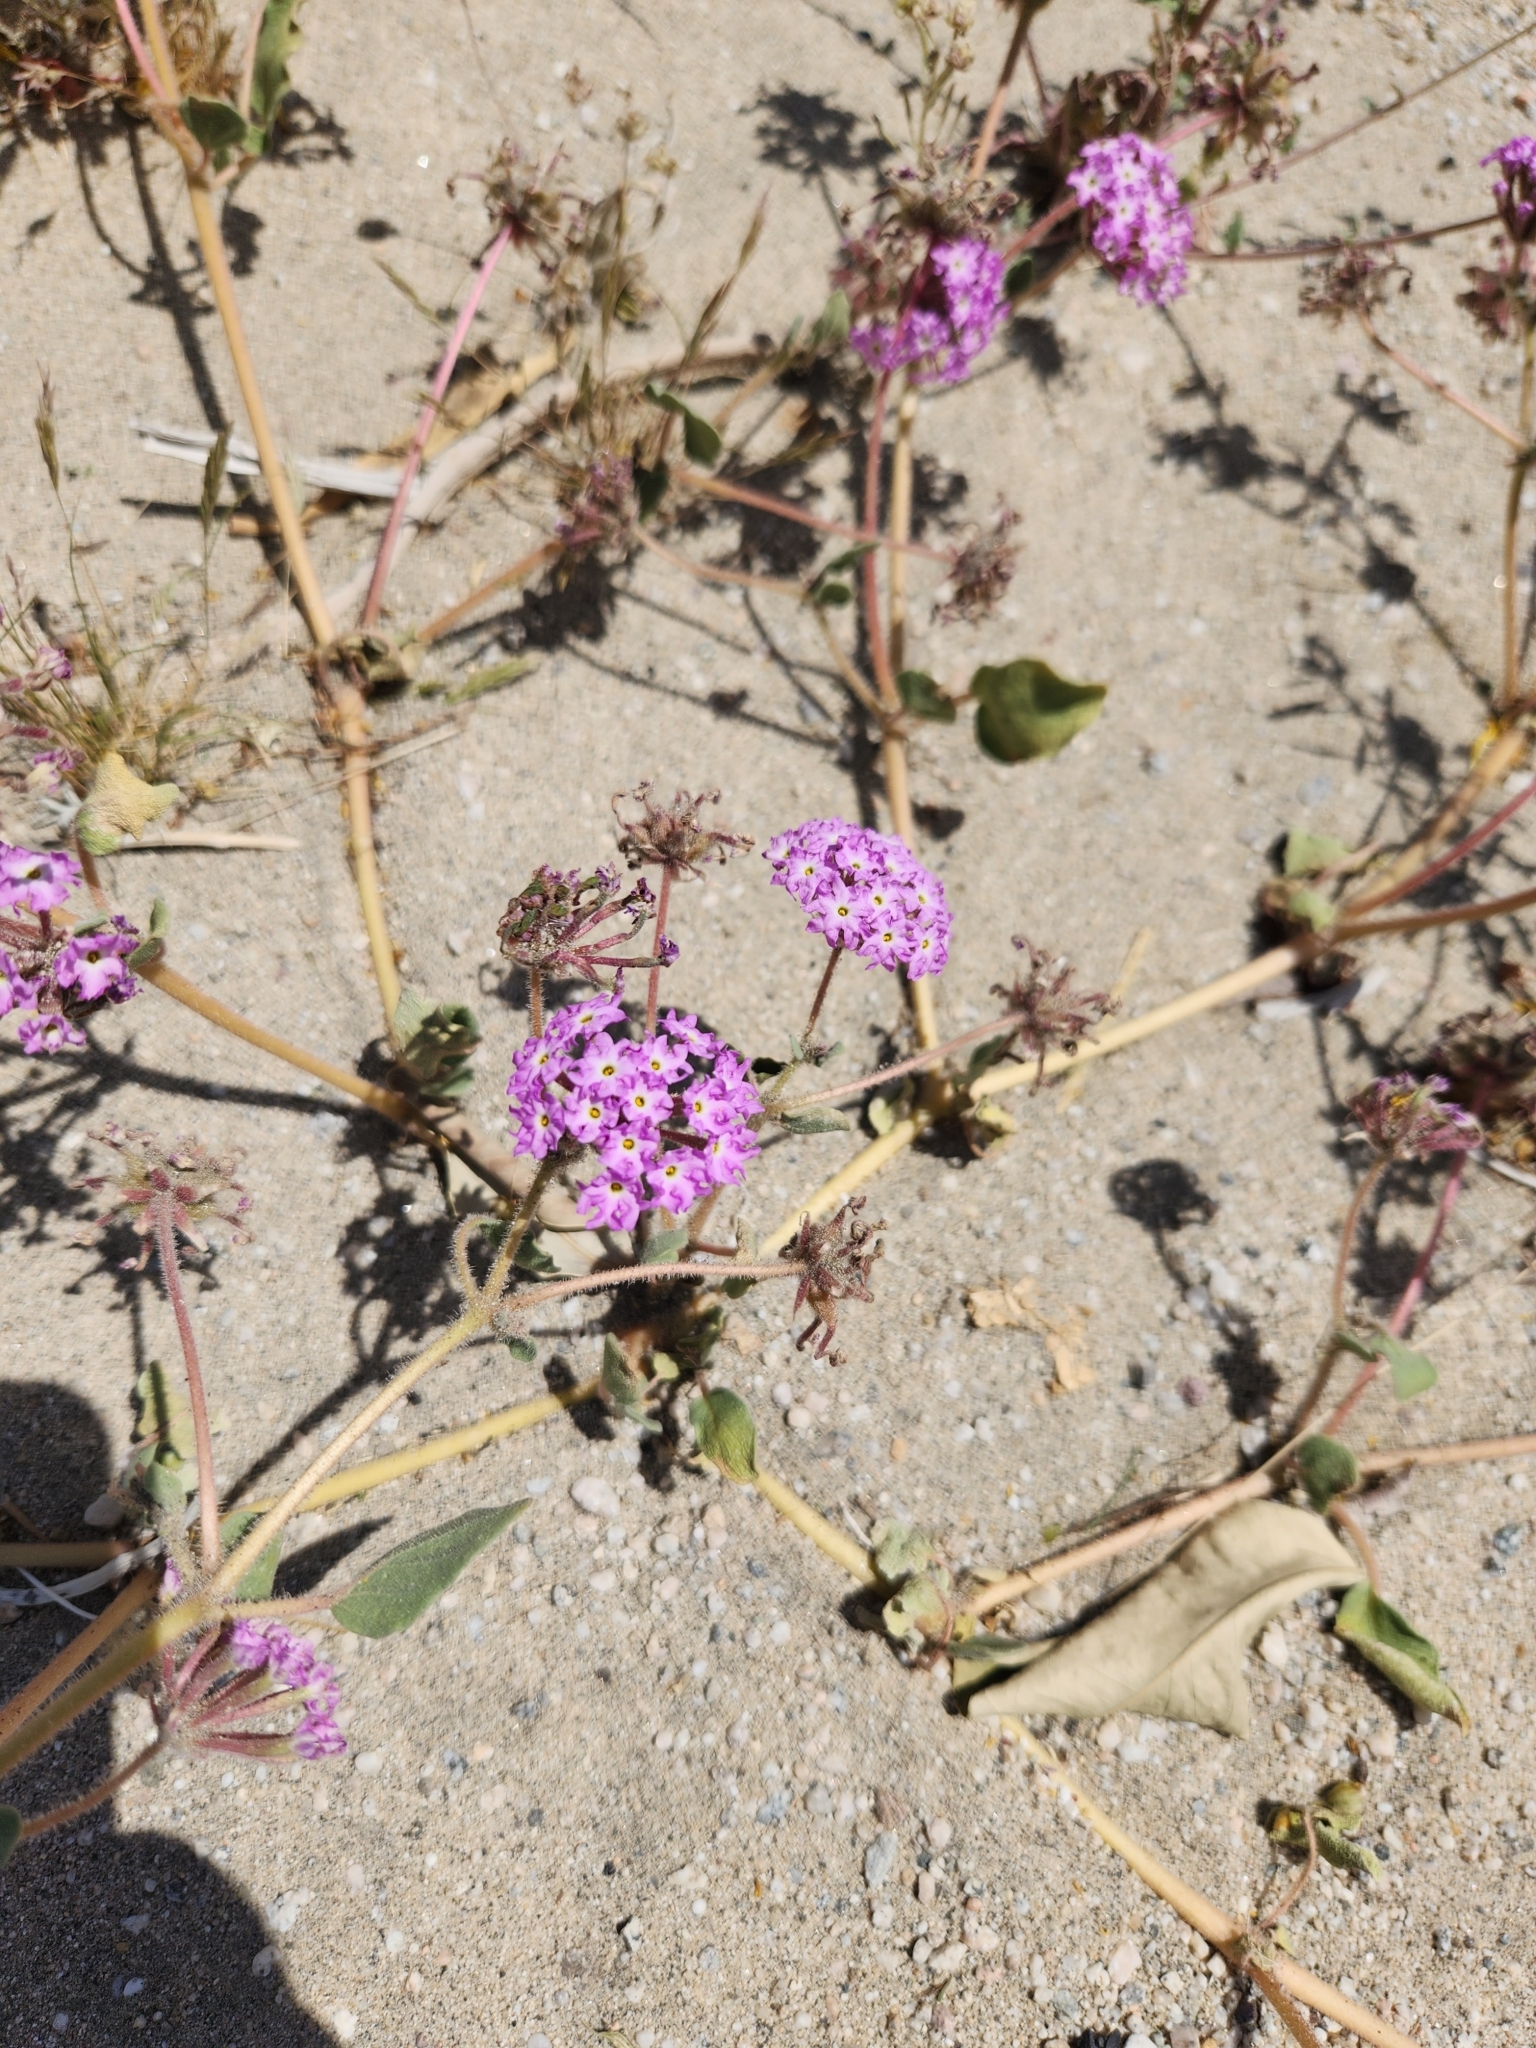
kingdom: Plantae
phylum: Tracheophyta
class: Magnoliopsida
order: Caryophyllales
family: Nyctaginaceae
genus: Abronia
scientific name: Abronia villosa
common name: Desert sand-verbena
